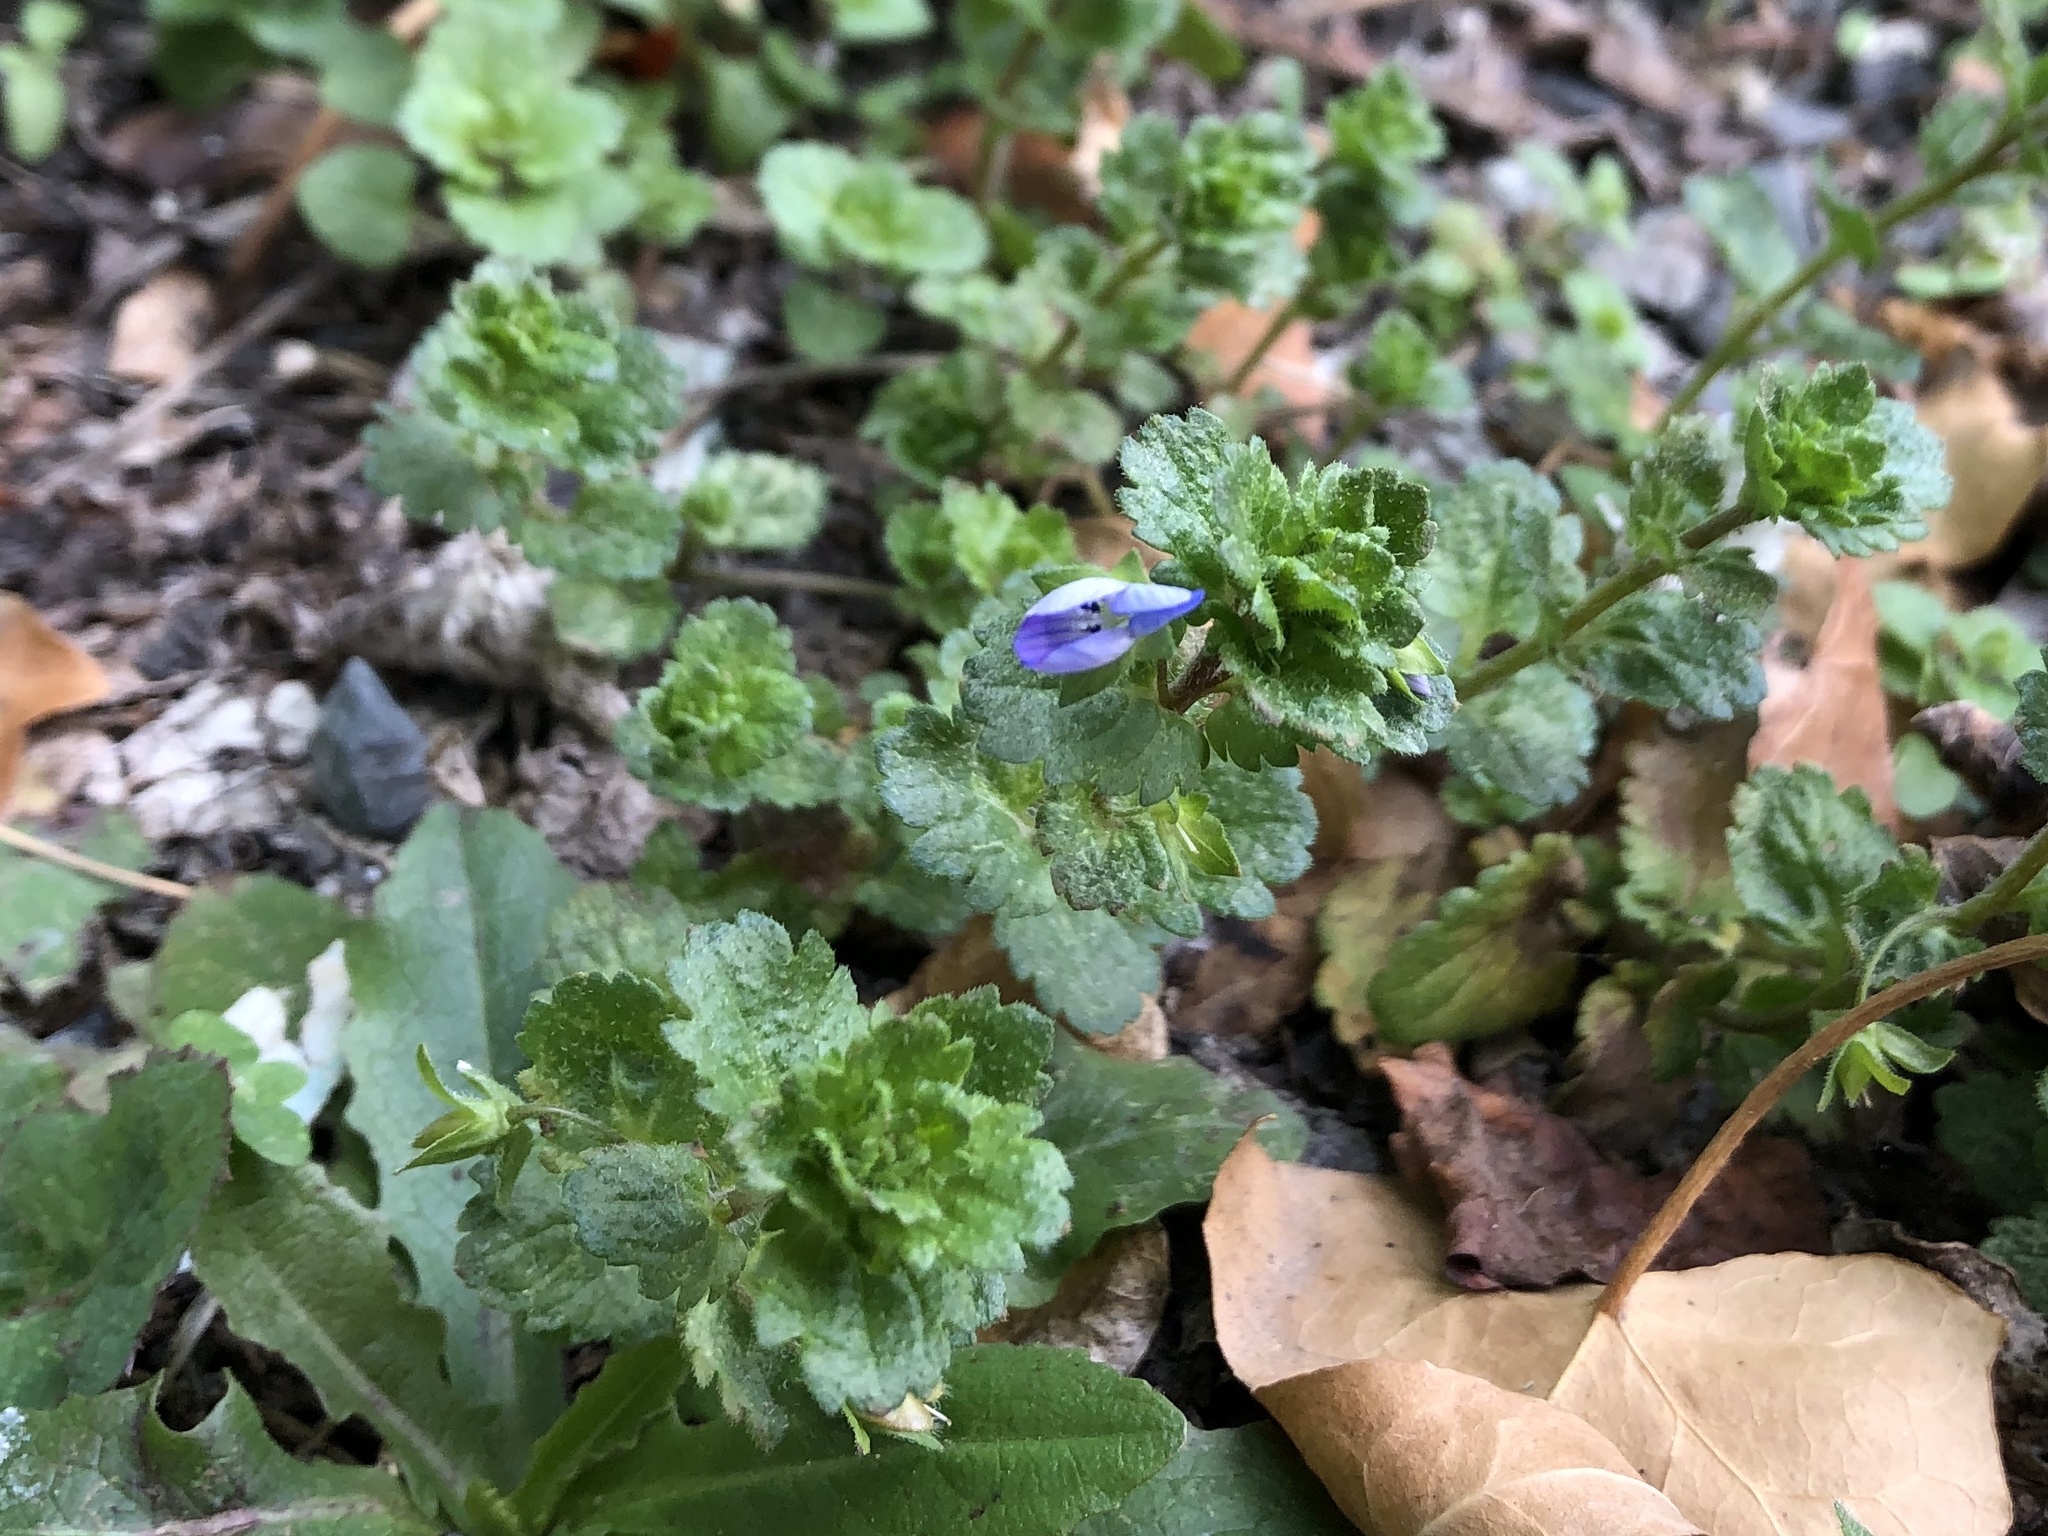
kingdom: Plantae
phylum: Tracheophyta
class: Magnoliopsida
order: Lamiales
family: Plantaginaceae
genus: Veronica
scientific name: Veronica persica
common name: Common field-speedwell
